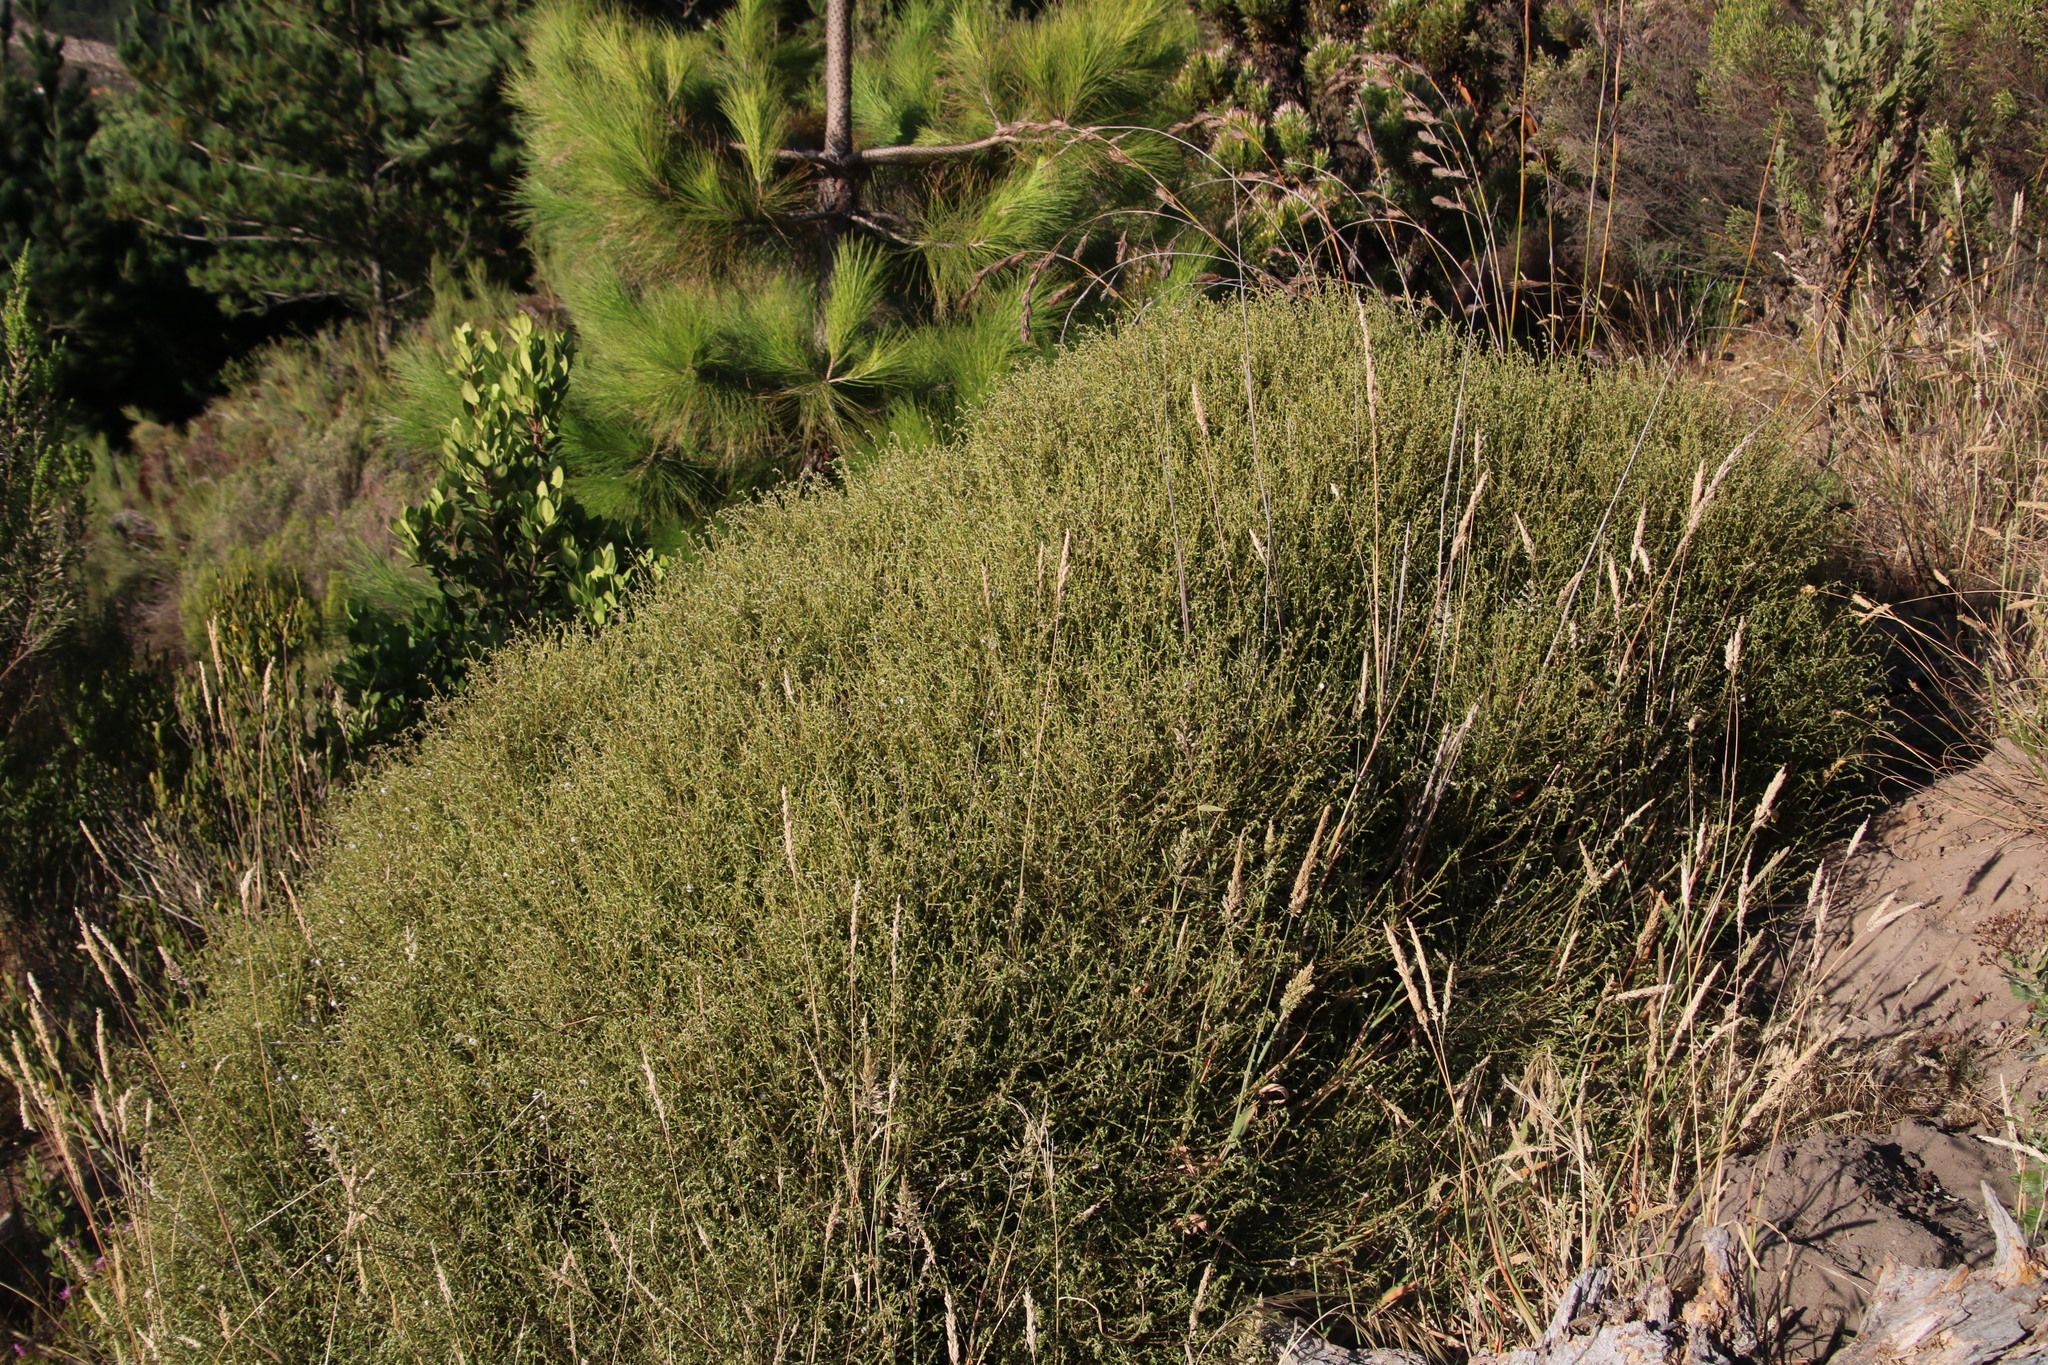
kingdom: Plantae
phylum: Tracheophyta
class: Magnoliopsida
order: Asterales
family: Asteraceae
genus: Myrovernix
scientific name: Myrovernix scaber
